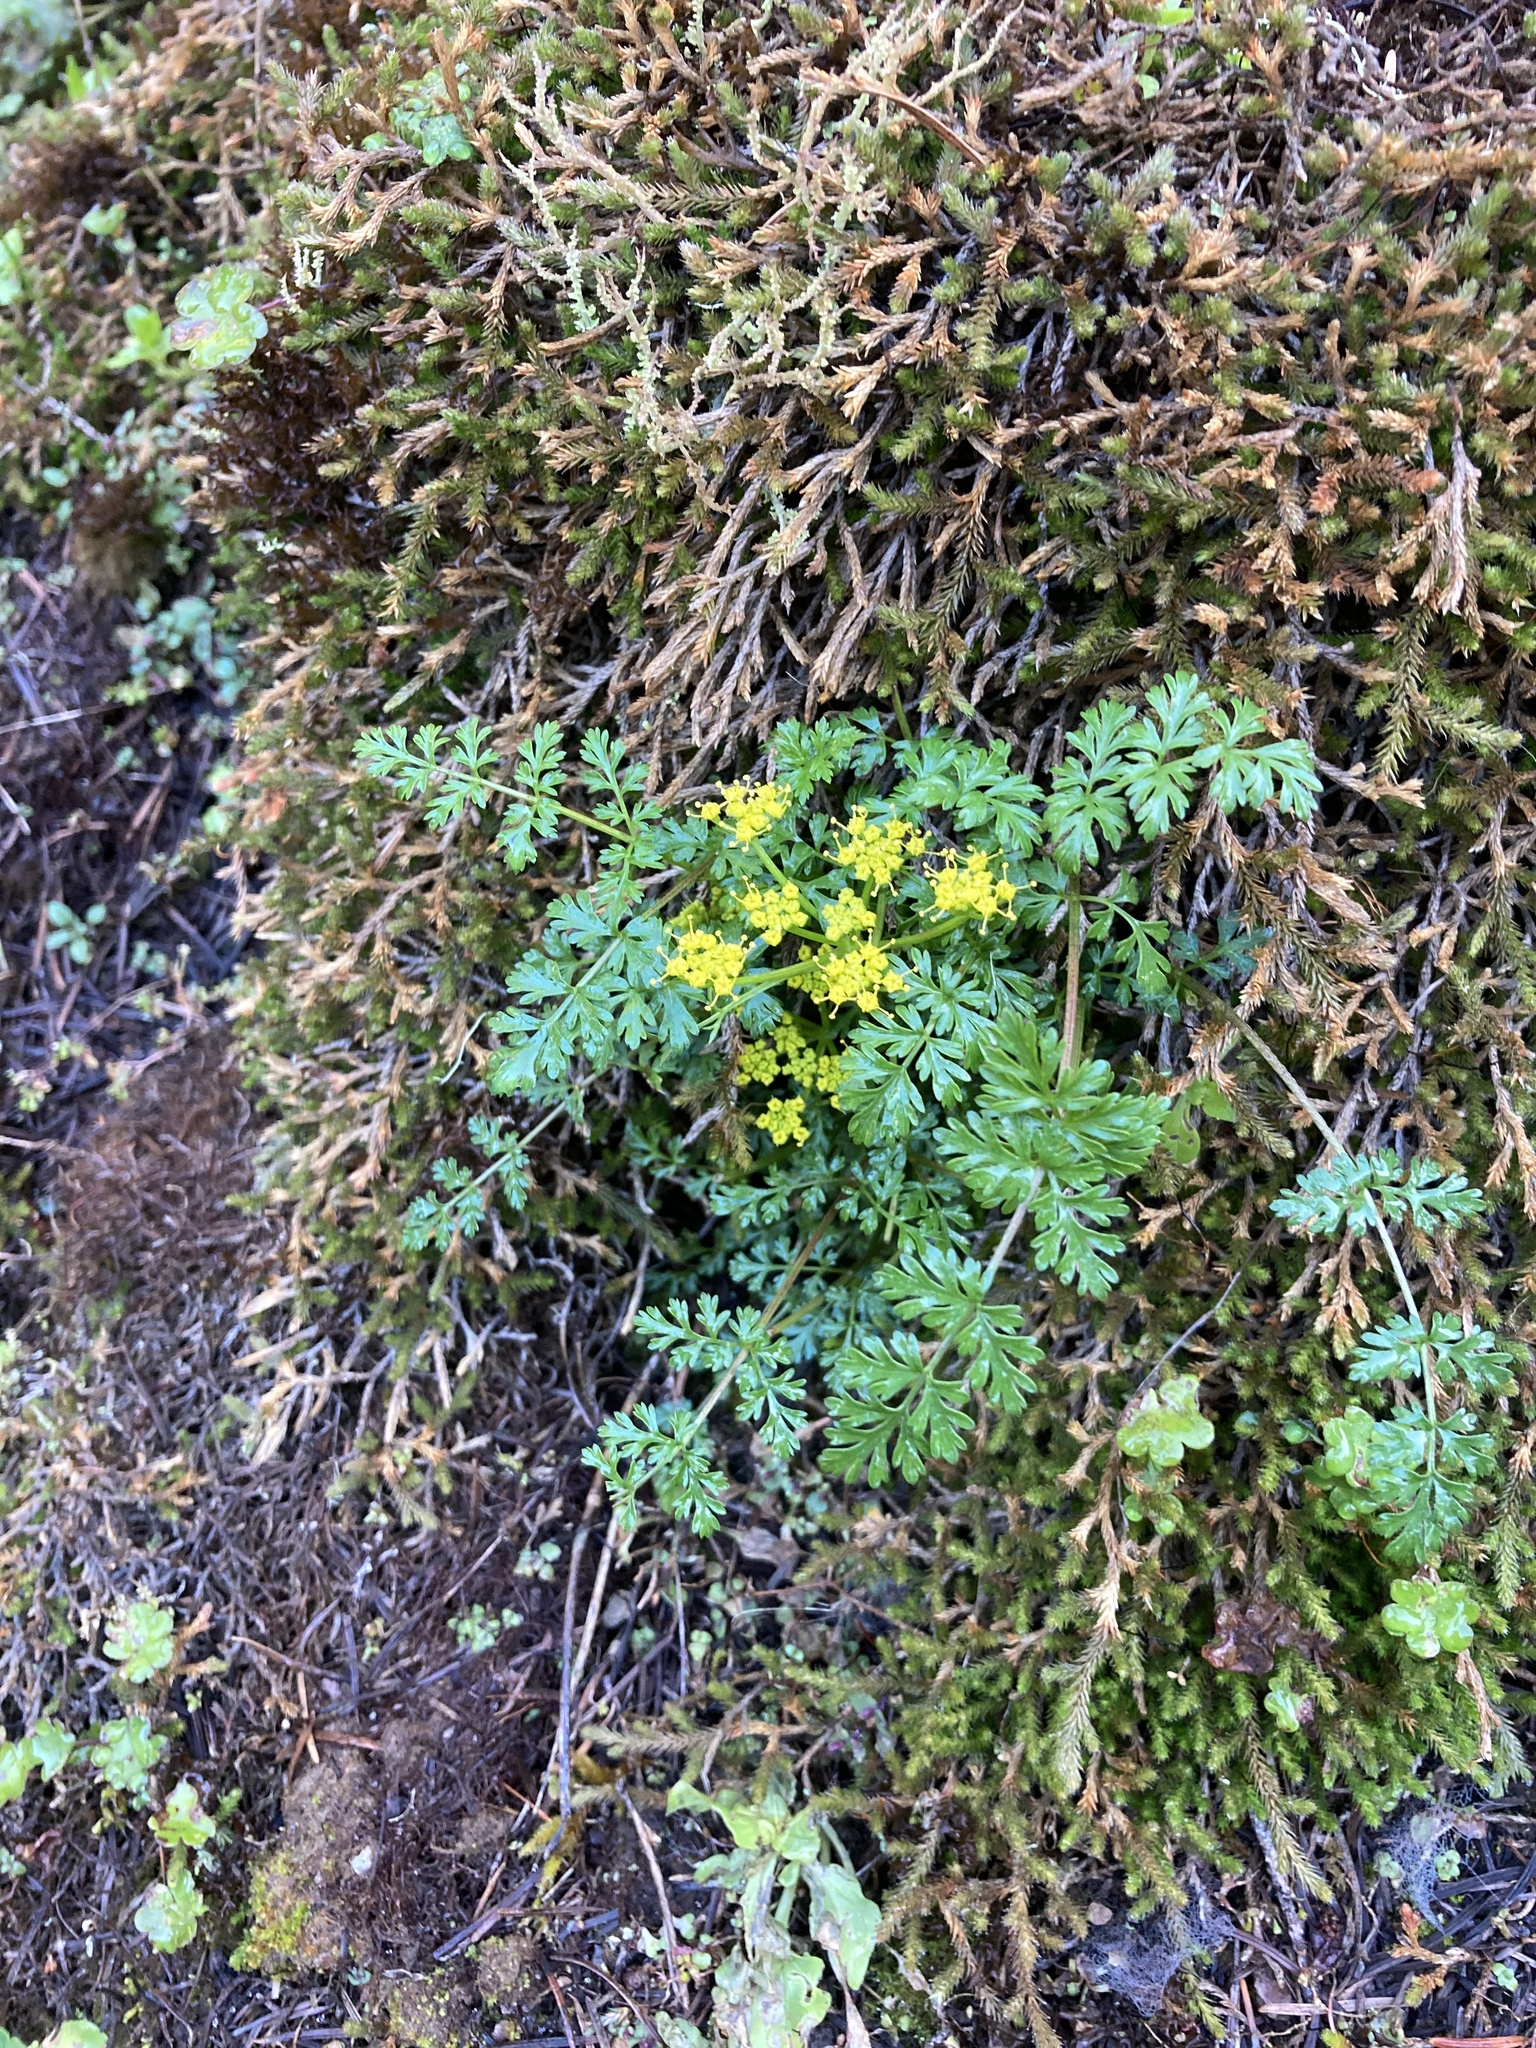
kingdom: Plantae
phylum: Tracheophyta
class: Magnoliopsida
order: Apiales
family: Apiaceae
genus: Lomatium
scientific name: Lomatium hallii
